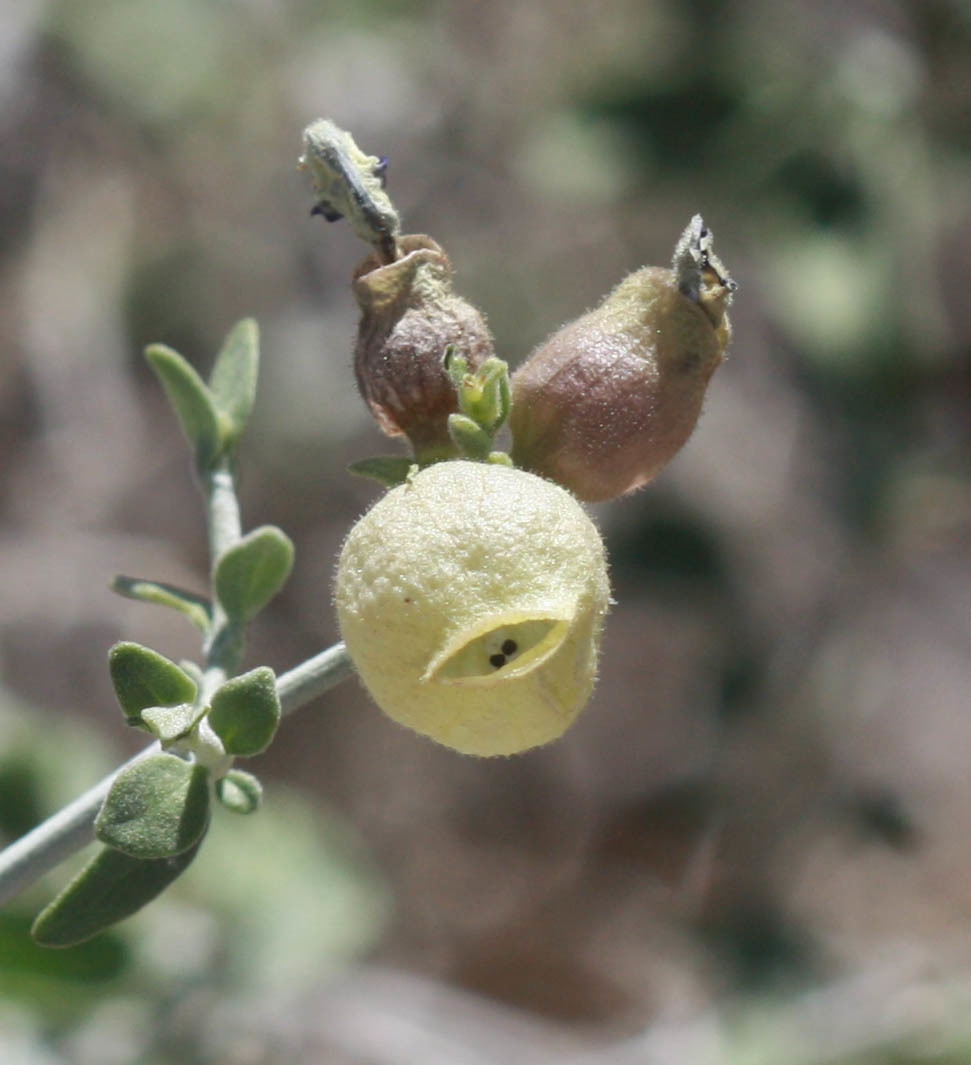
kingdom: Plantae
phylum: Tracheophyta
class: Magnoliopsida
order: Lamiales
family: Lamiaceae
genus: Scutellaria
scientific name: Scutellaria mexicana
